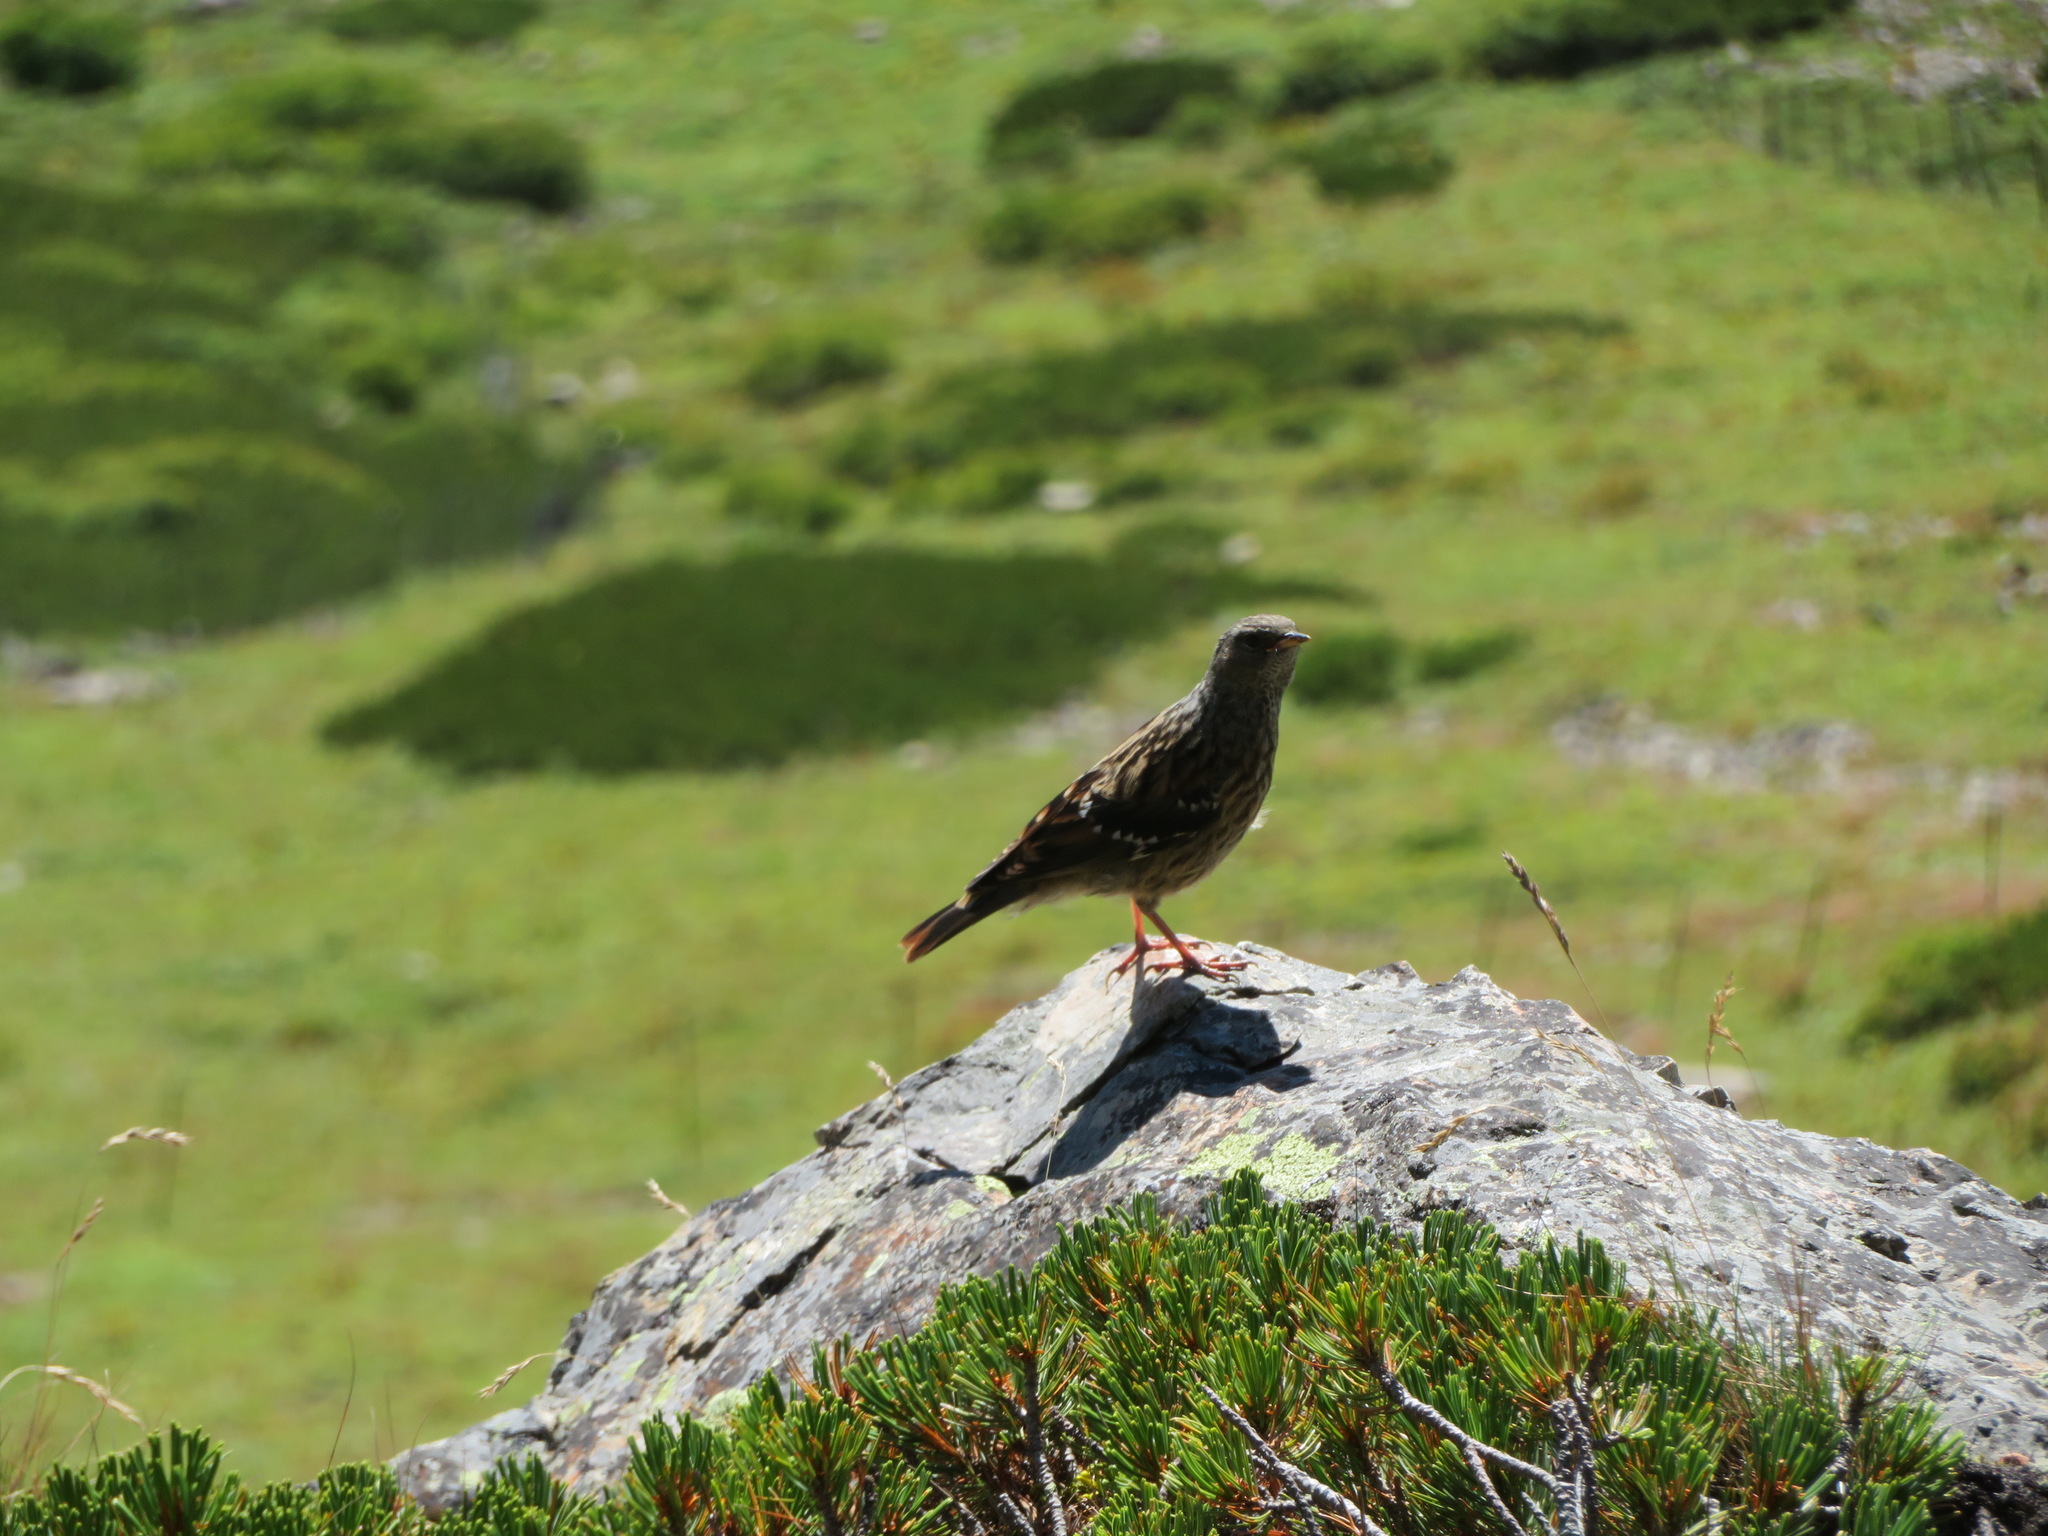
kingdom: Animalia
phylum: Chordata
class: Aves
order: Passeriformes
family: Prunellidae
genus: Prunella
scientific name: Prunella collaris
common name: Alpine accentor
